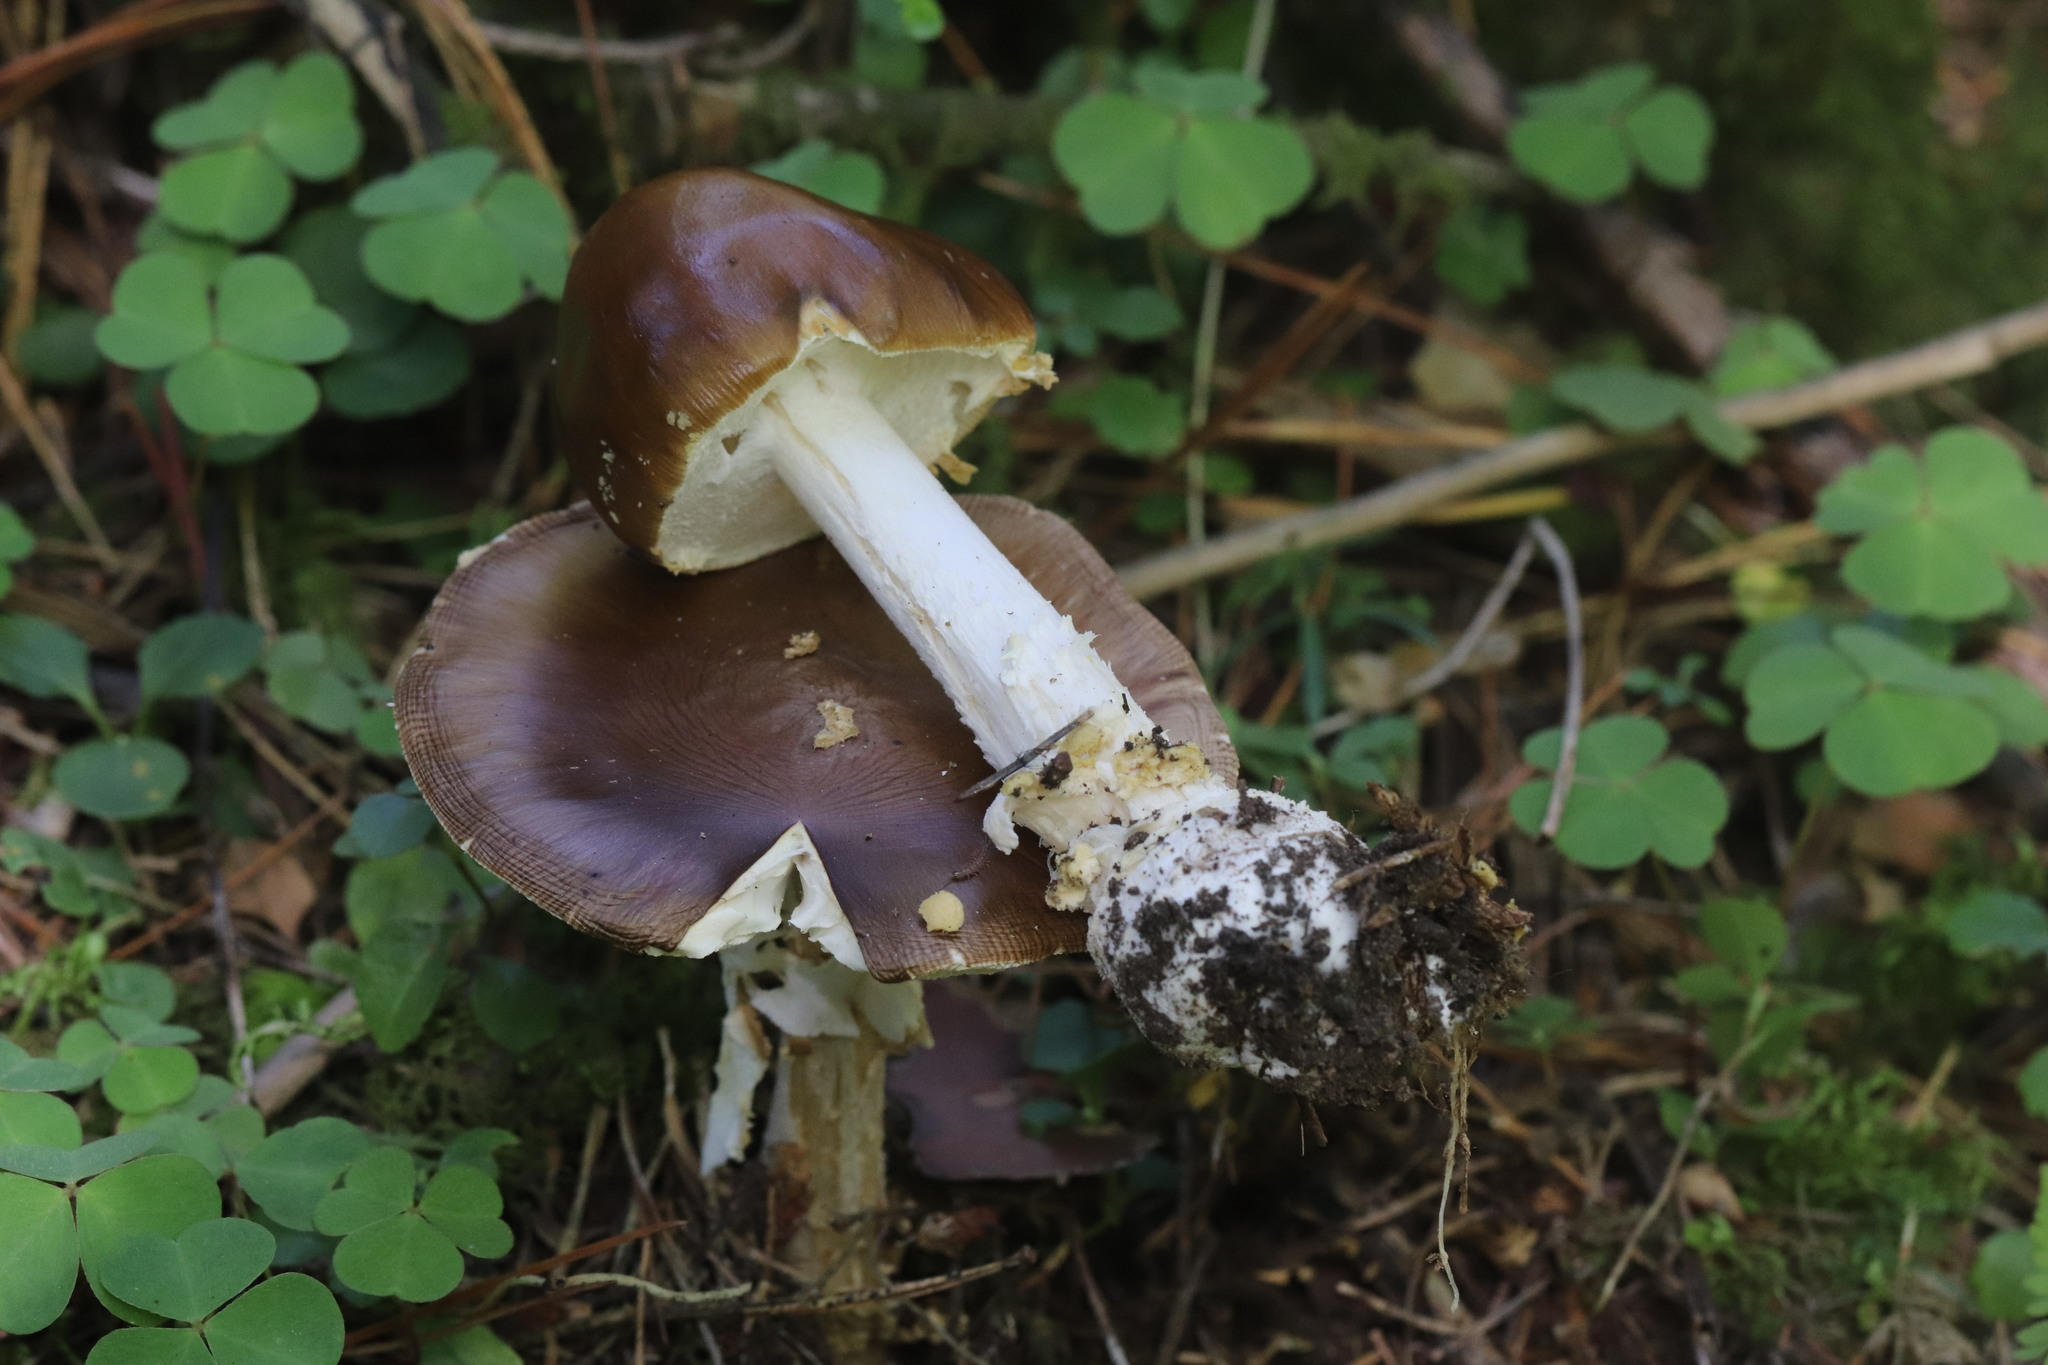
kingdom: Fungi
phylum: Basidiomycota
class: Agaricomycetes
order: Agaricales
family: Amanitaceae
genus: Amanita
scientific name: Amanita pantherina
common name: Panthercap
